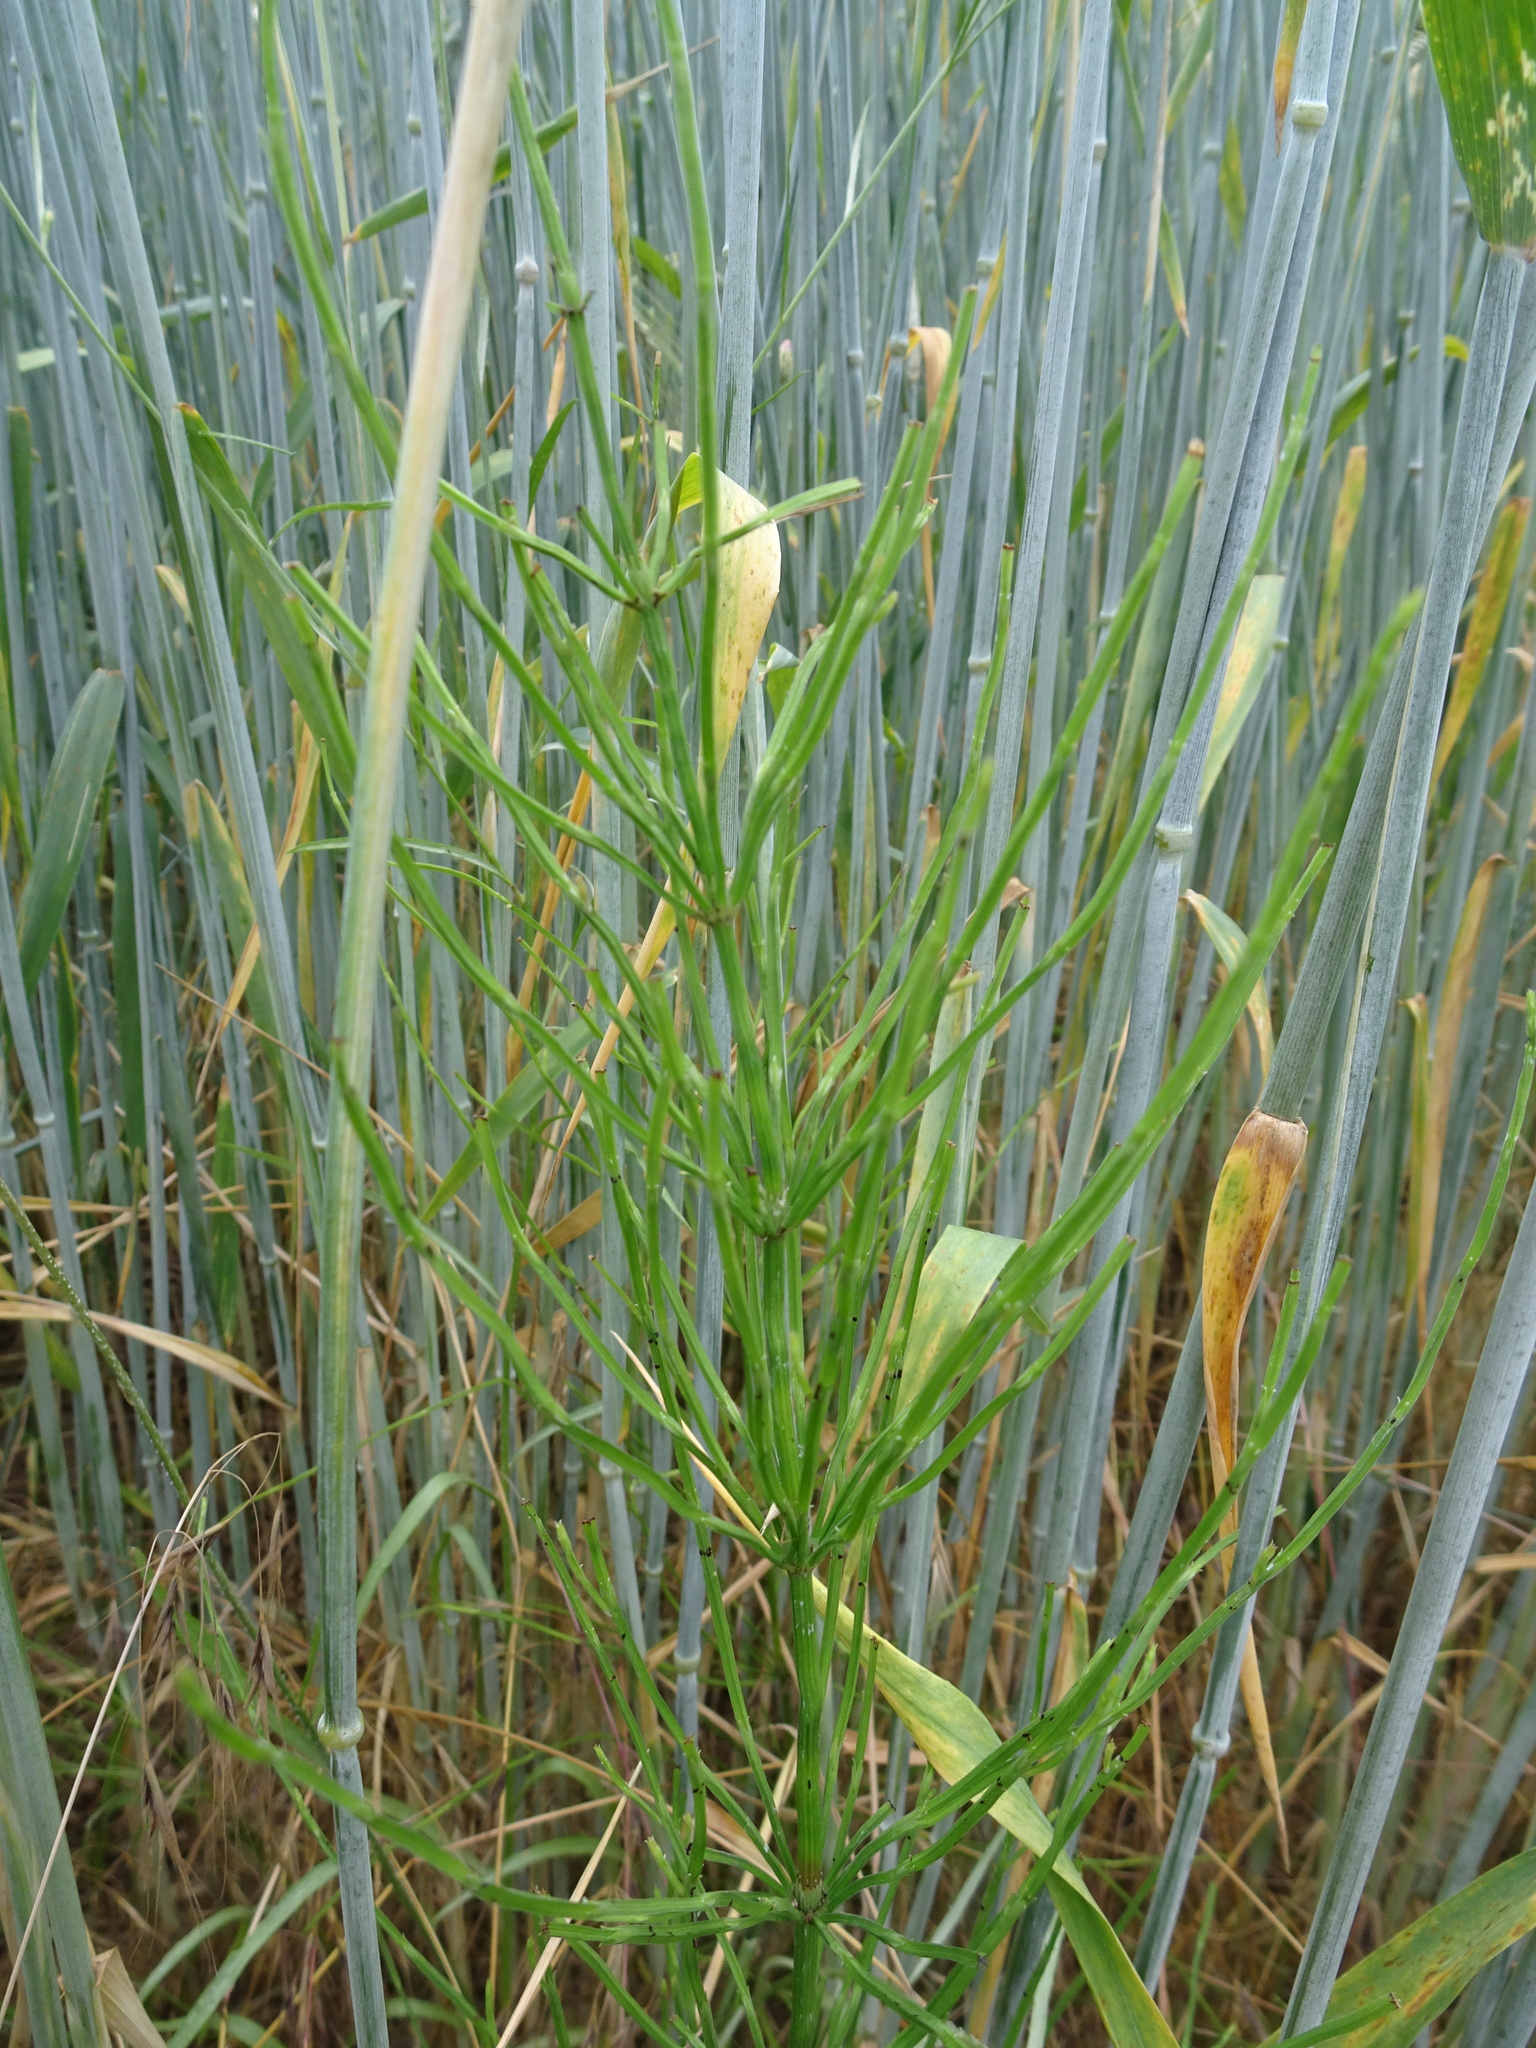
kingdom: Plantae
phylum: Tracheophyta
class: Polypodiopsida
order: Equisetales
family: Equisetaceae
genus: Equisetum
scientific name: Equisetum arvense
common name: Field horsetail
